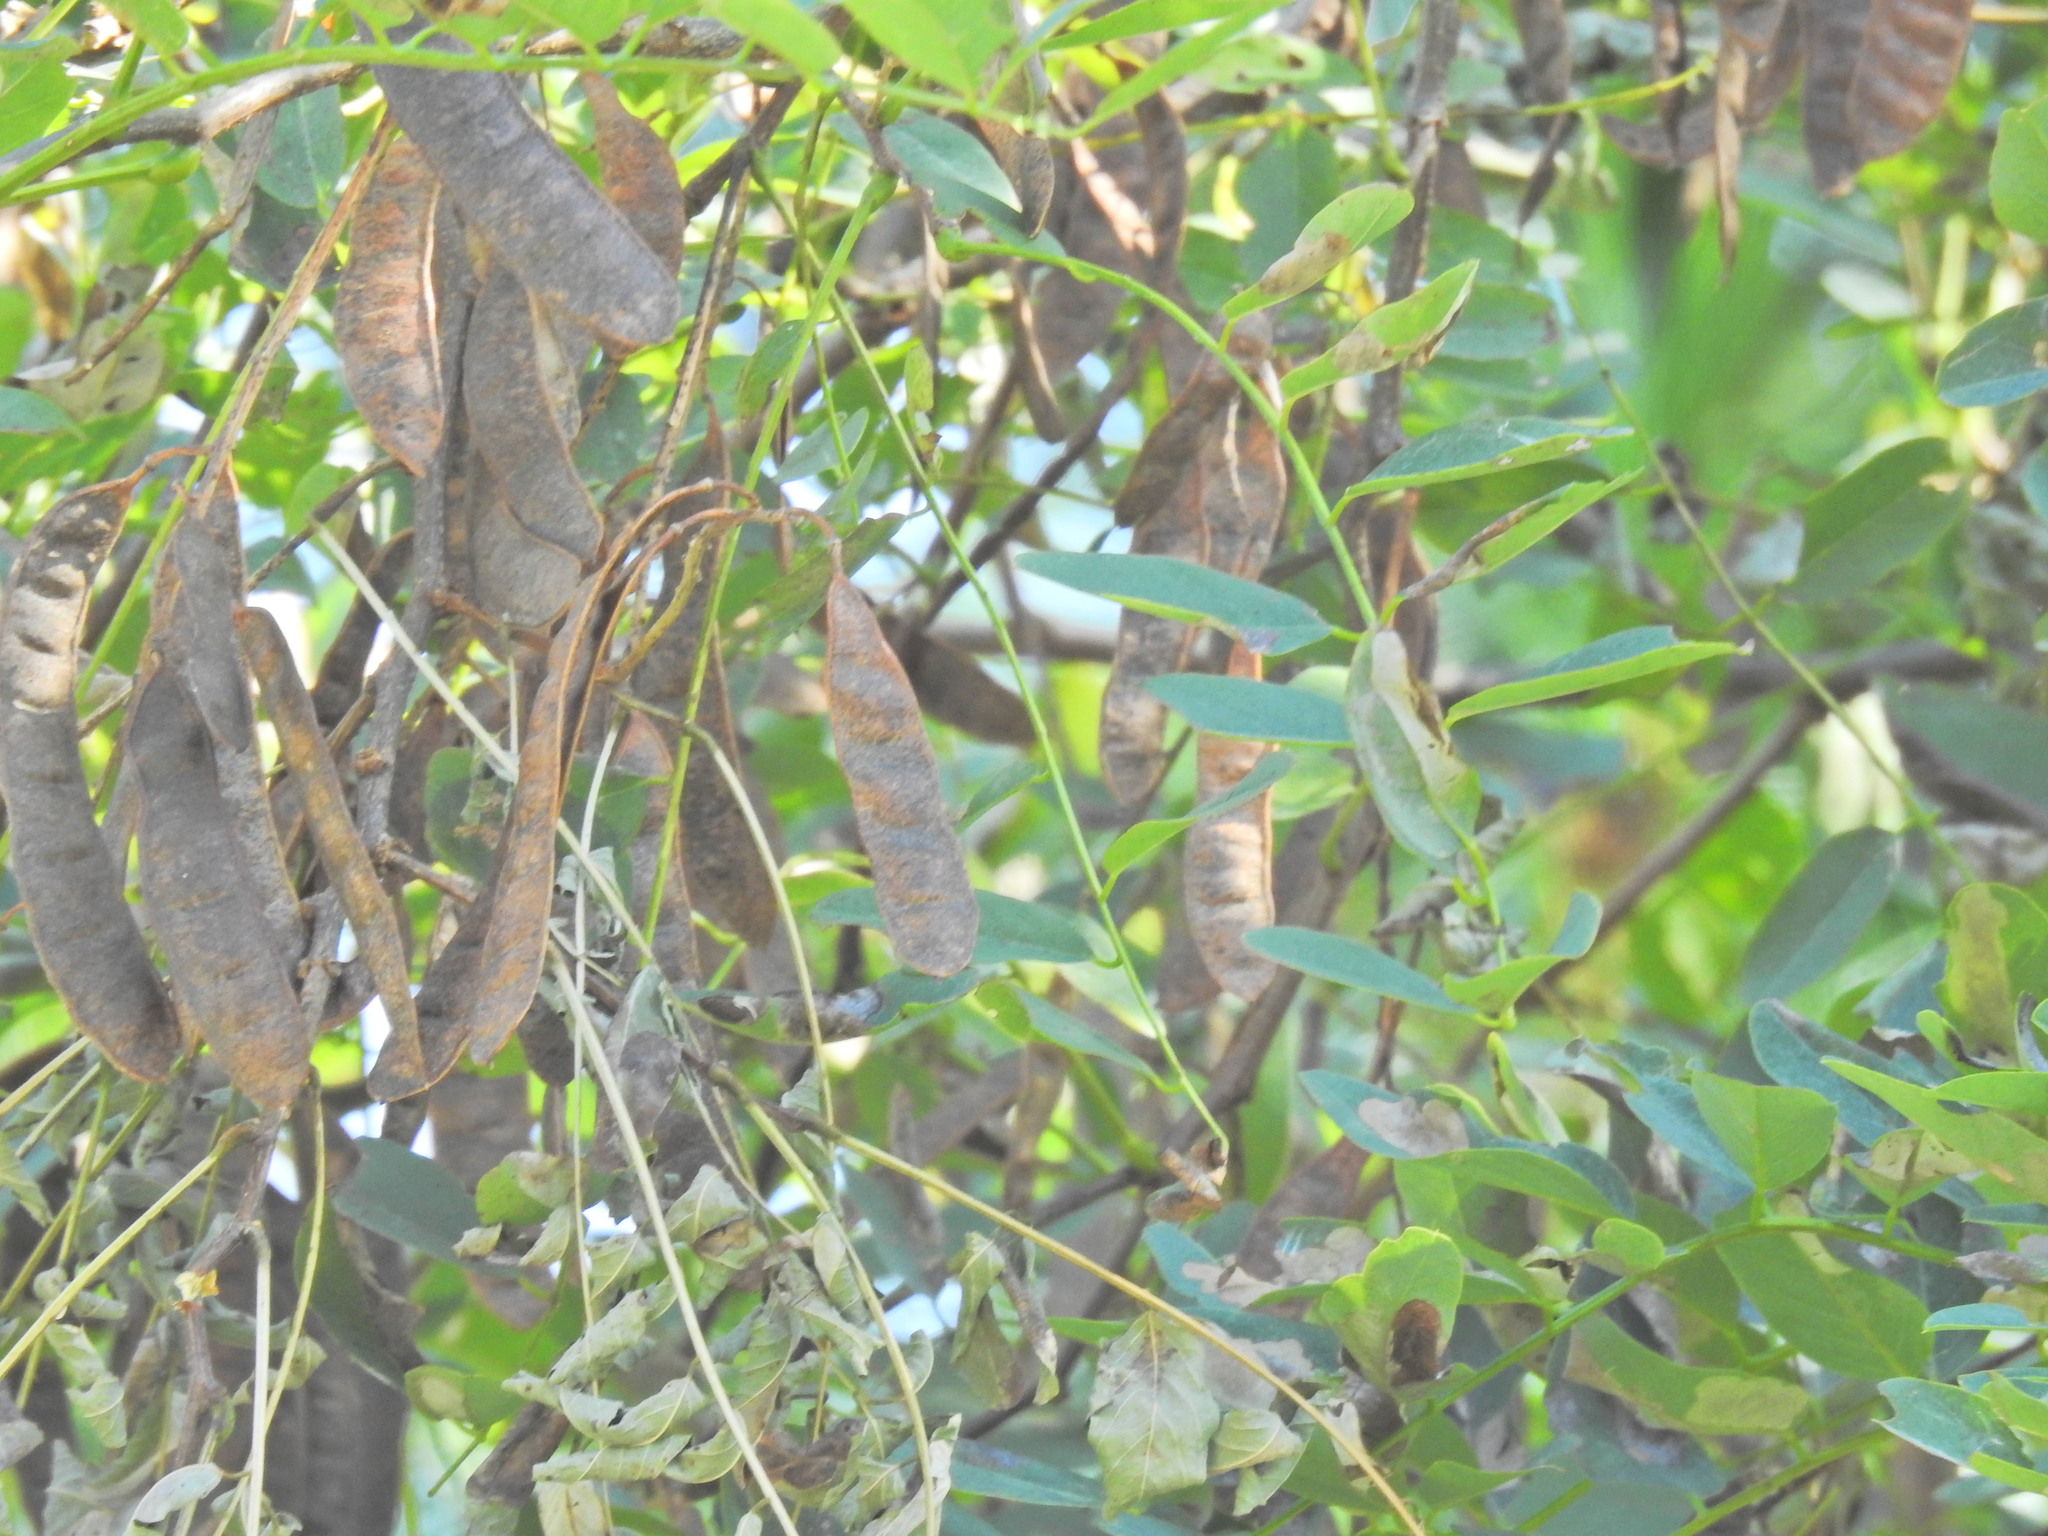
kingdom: Plantae
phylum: Tracheophyta
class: Magnoliopsida
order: Fabales
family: Fabaceae
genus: Robinia
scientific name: Robinia pseudoacacia
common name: Black locust
